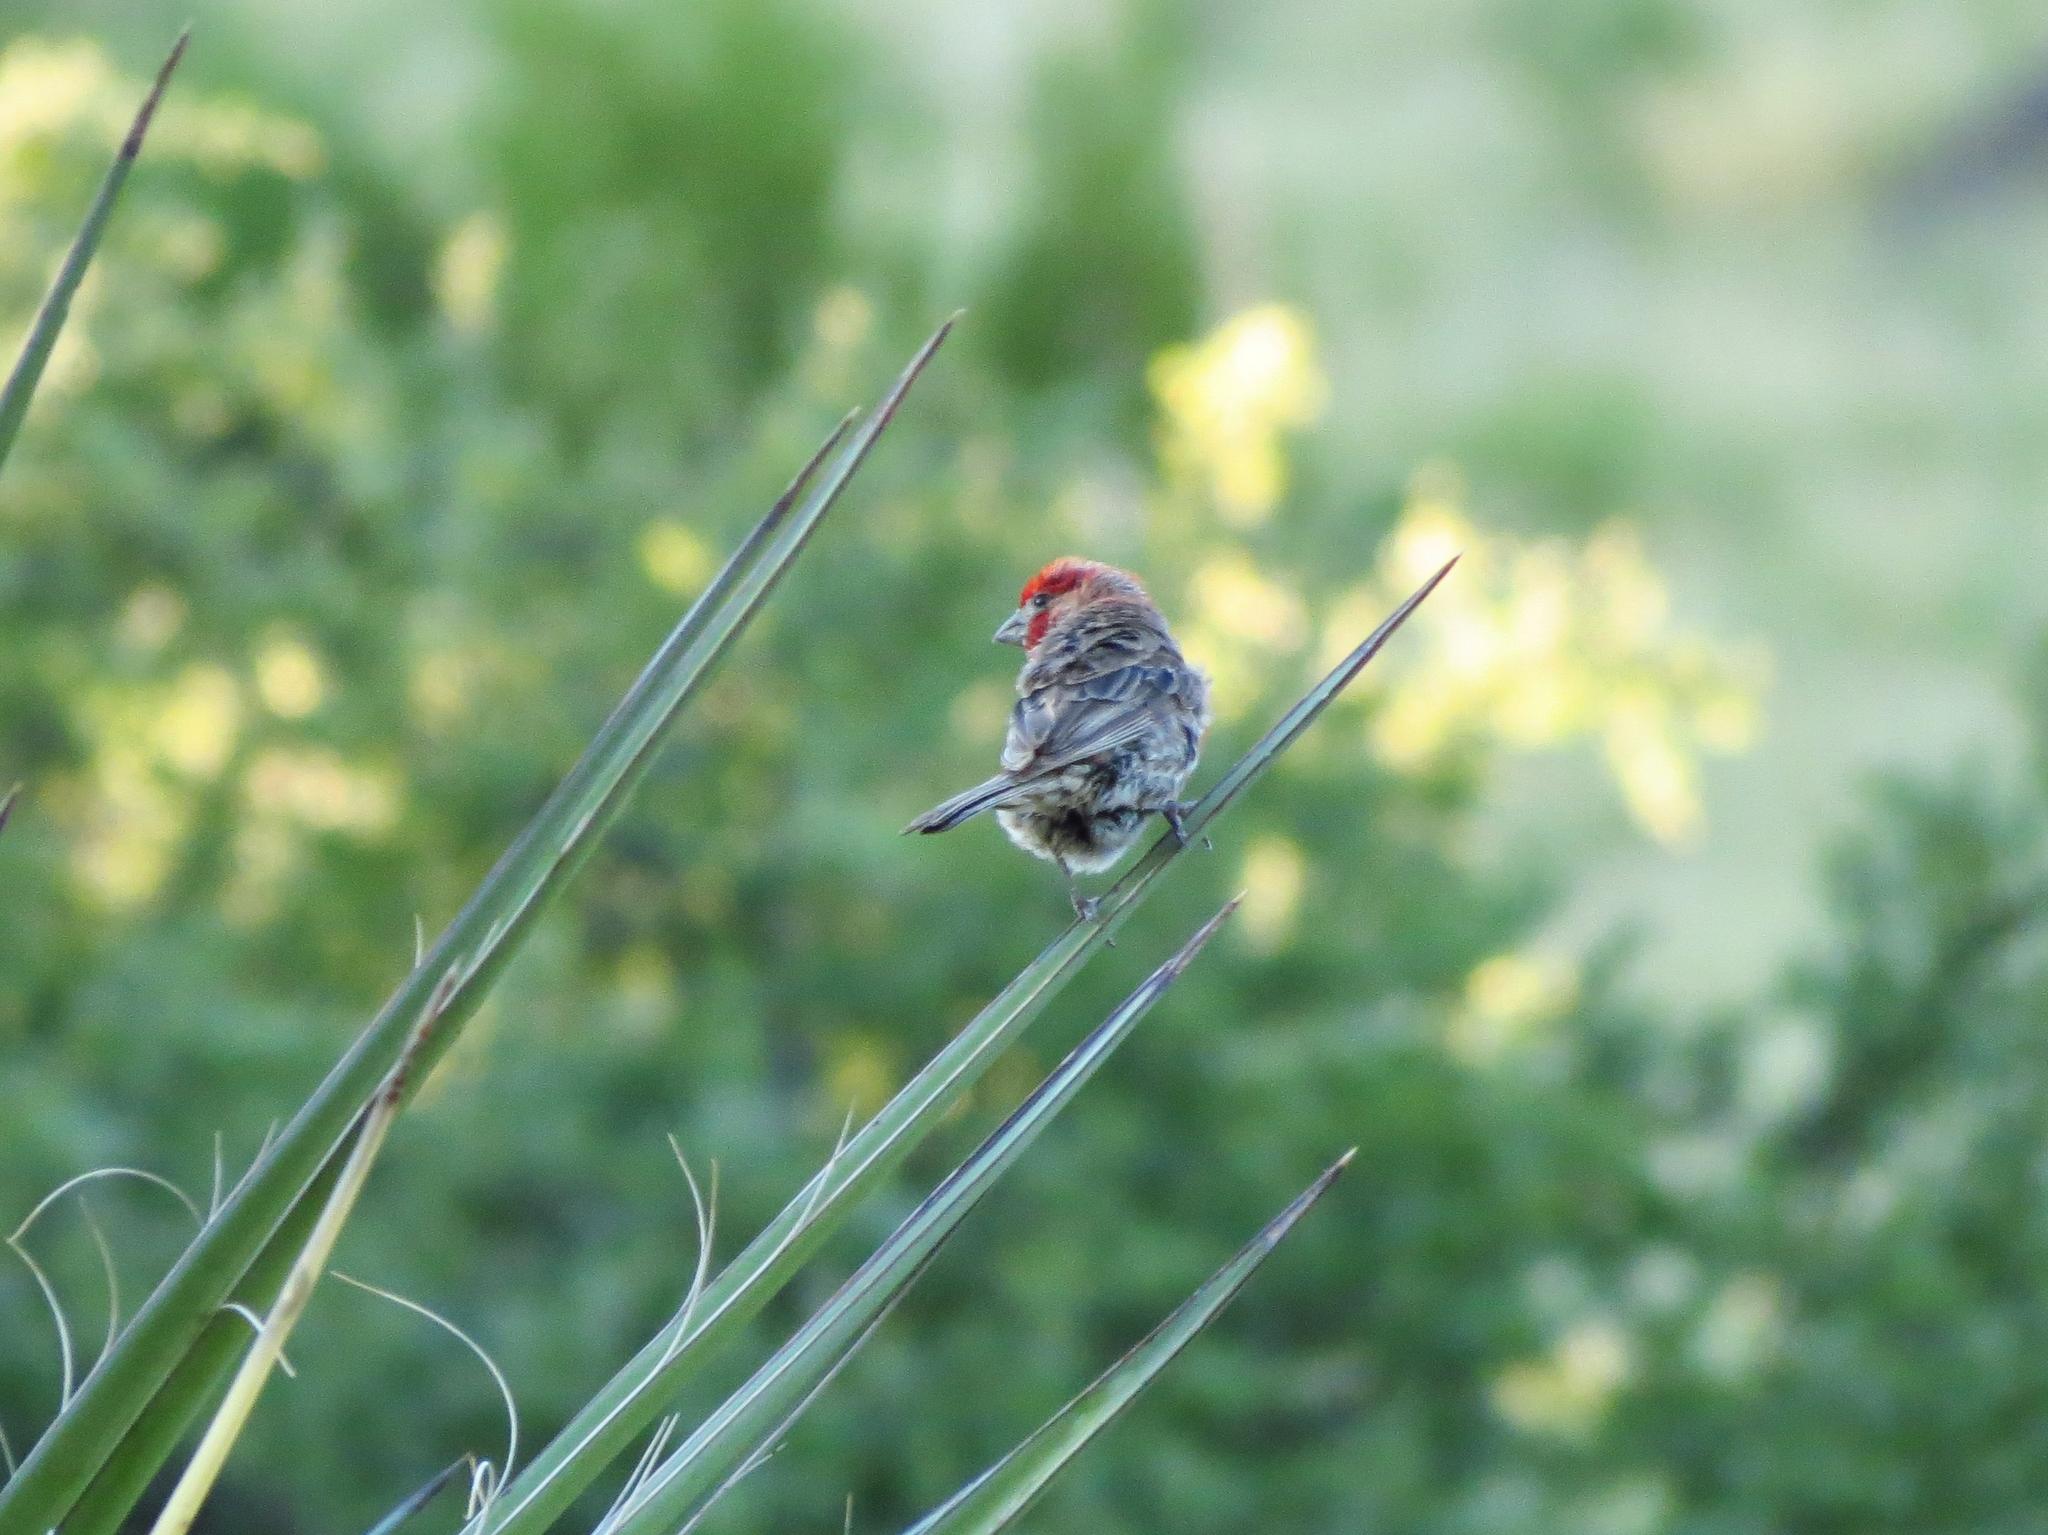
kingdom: Animalia
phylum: Chordata
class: Aves
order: Passeriformes
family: Fringillidae
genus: Haemorhous
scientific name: Haemorhous mexicanus
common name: House finch
